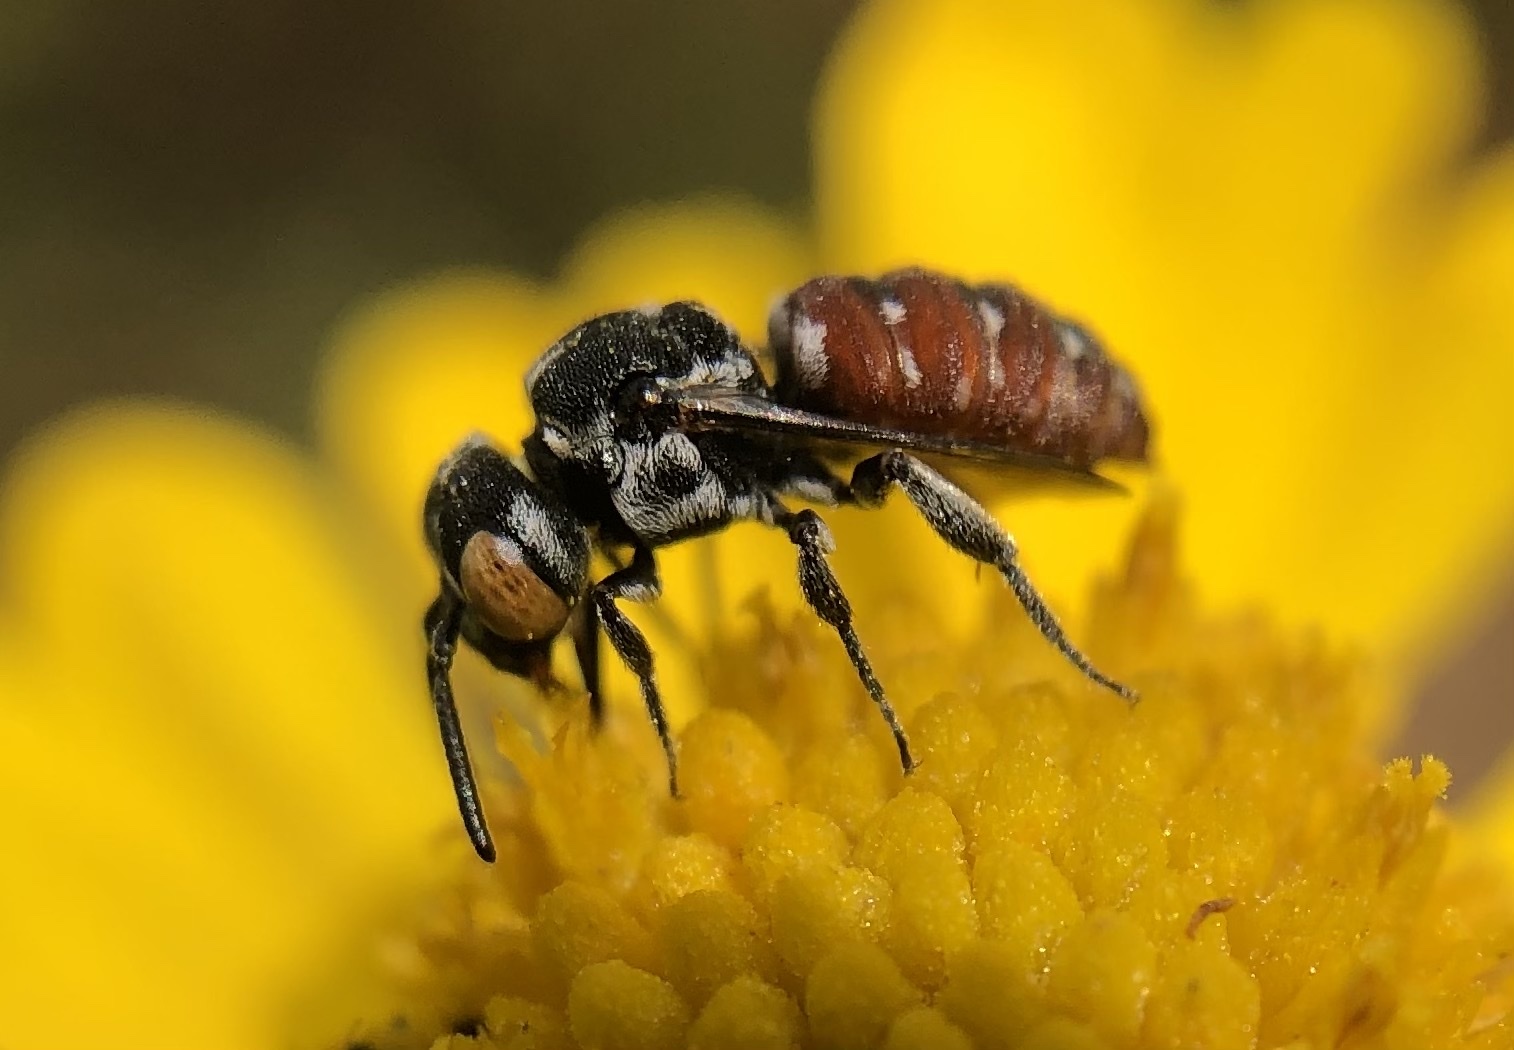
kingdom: Animalia
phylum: Arthropoda
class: Insecta
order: Hymenoptera
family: Apidae
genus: Holcopasites
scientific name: Holcopasites calliopsidis
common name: Calliopsis cuckoo nomad bee
